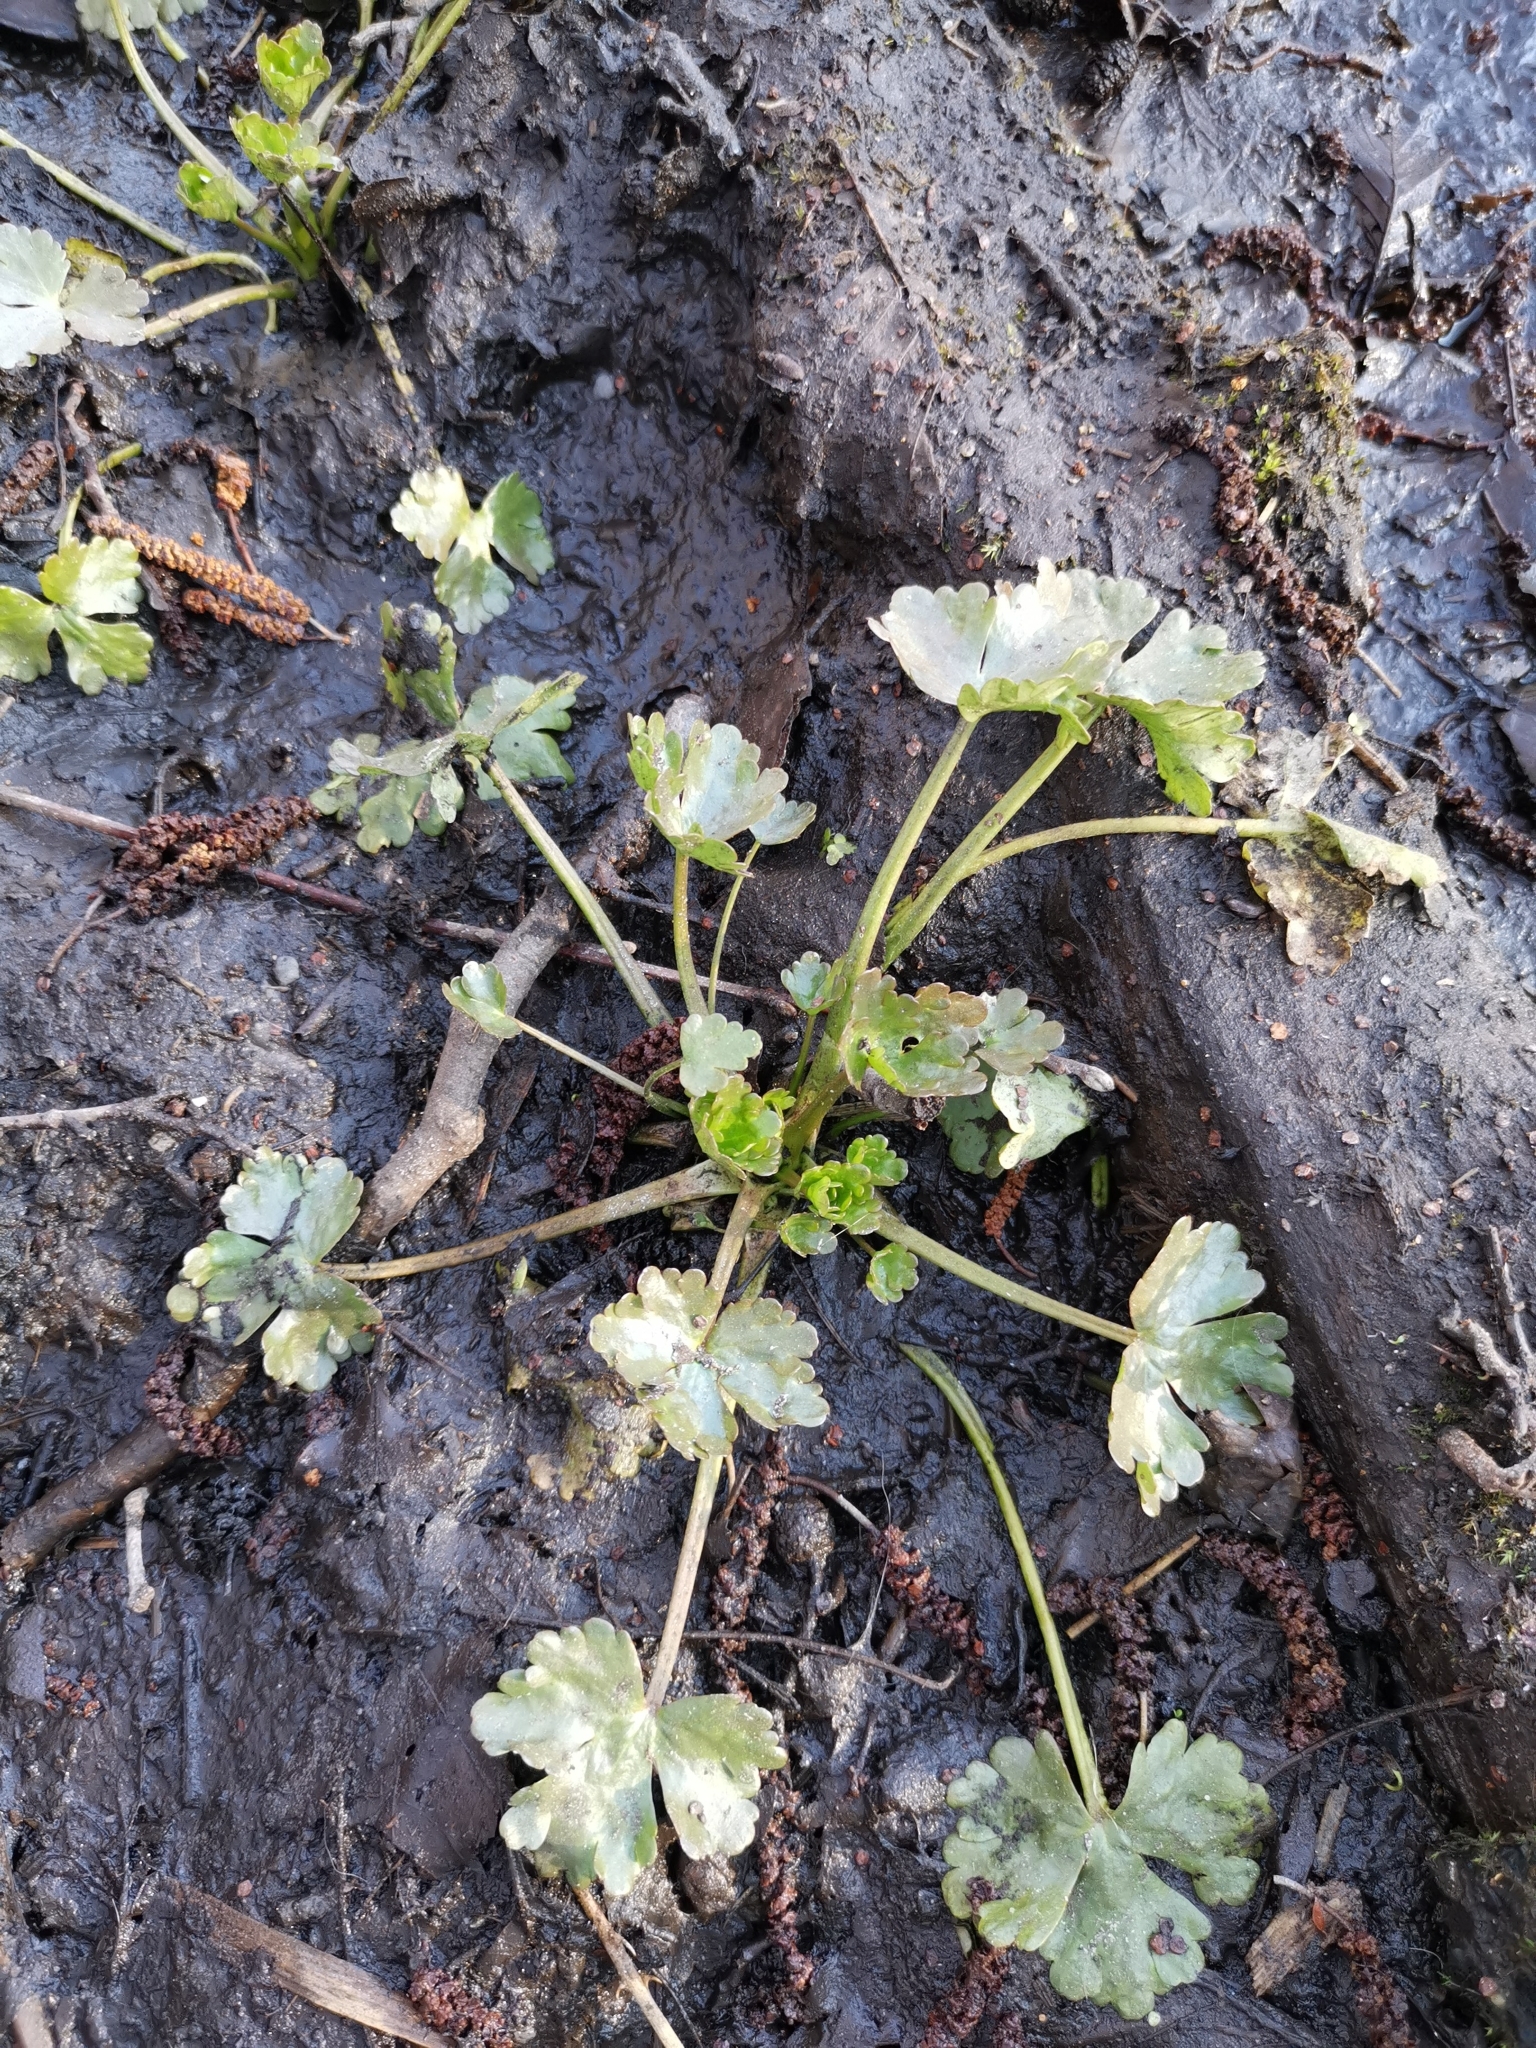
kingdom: Plantae
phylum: Tracheophyta
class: Magnoliopsida
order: Ranunculales
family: Ranunculaceae
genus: Ranunculus
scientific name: Ranunculus sceleratus
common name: Celery-leaved buttercup
